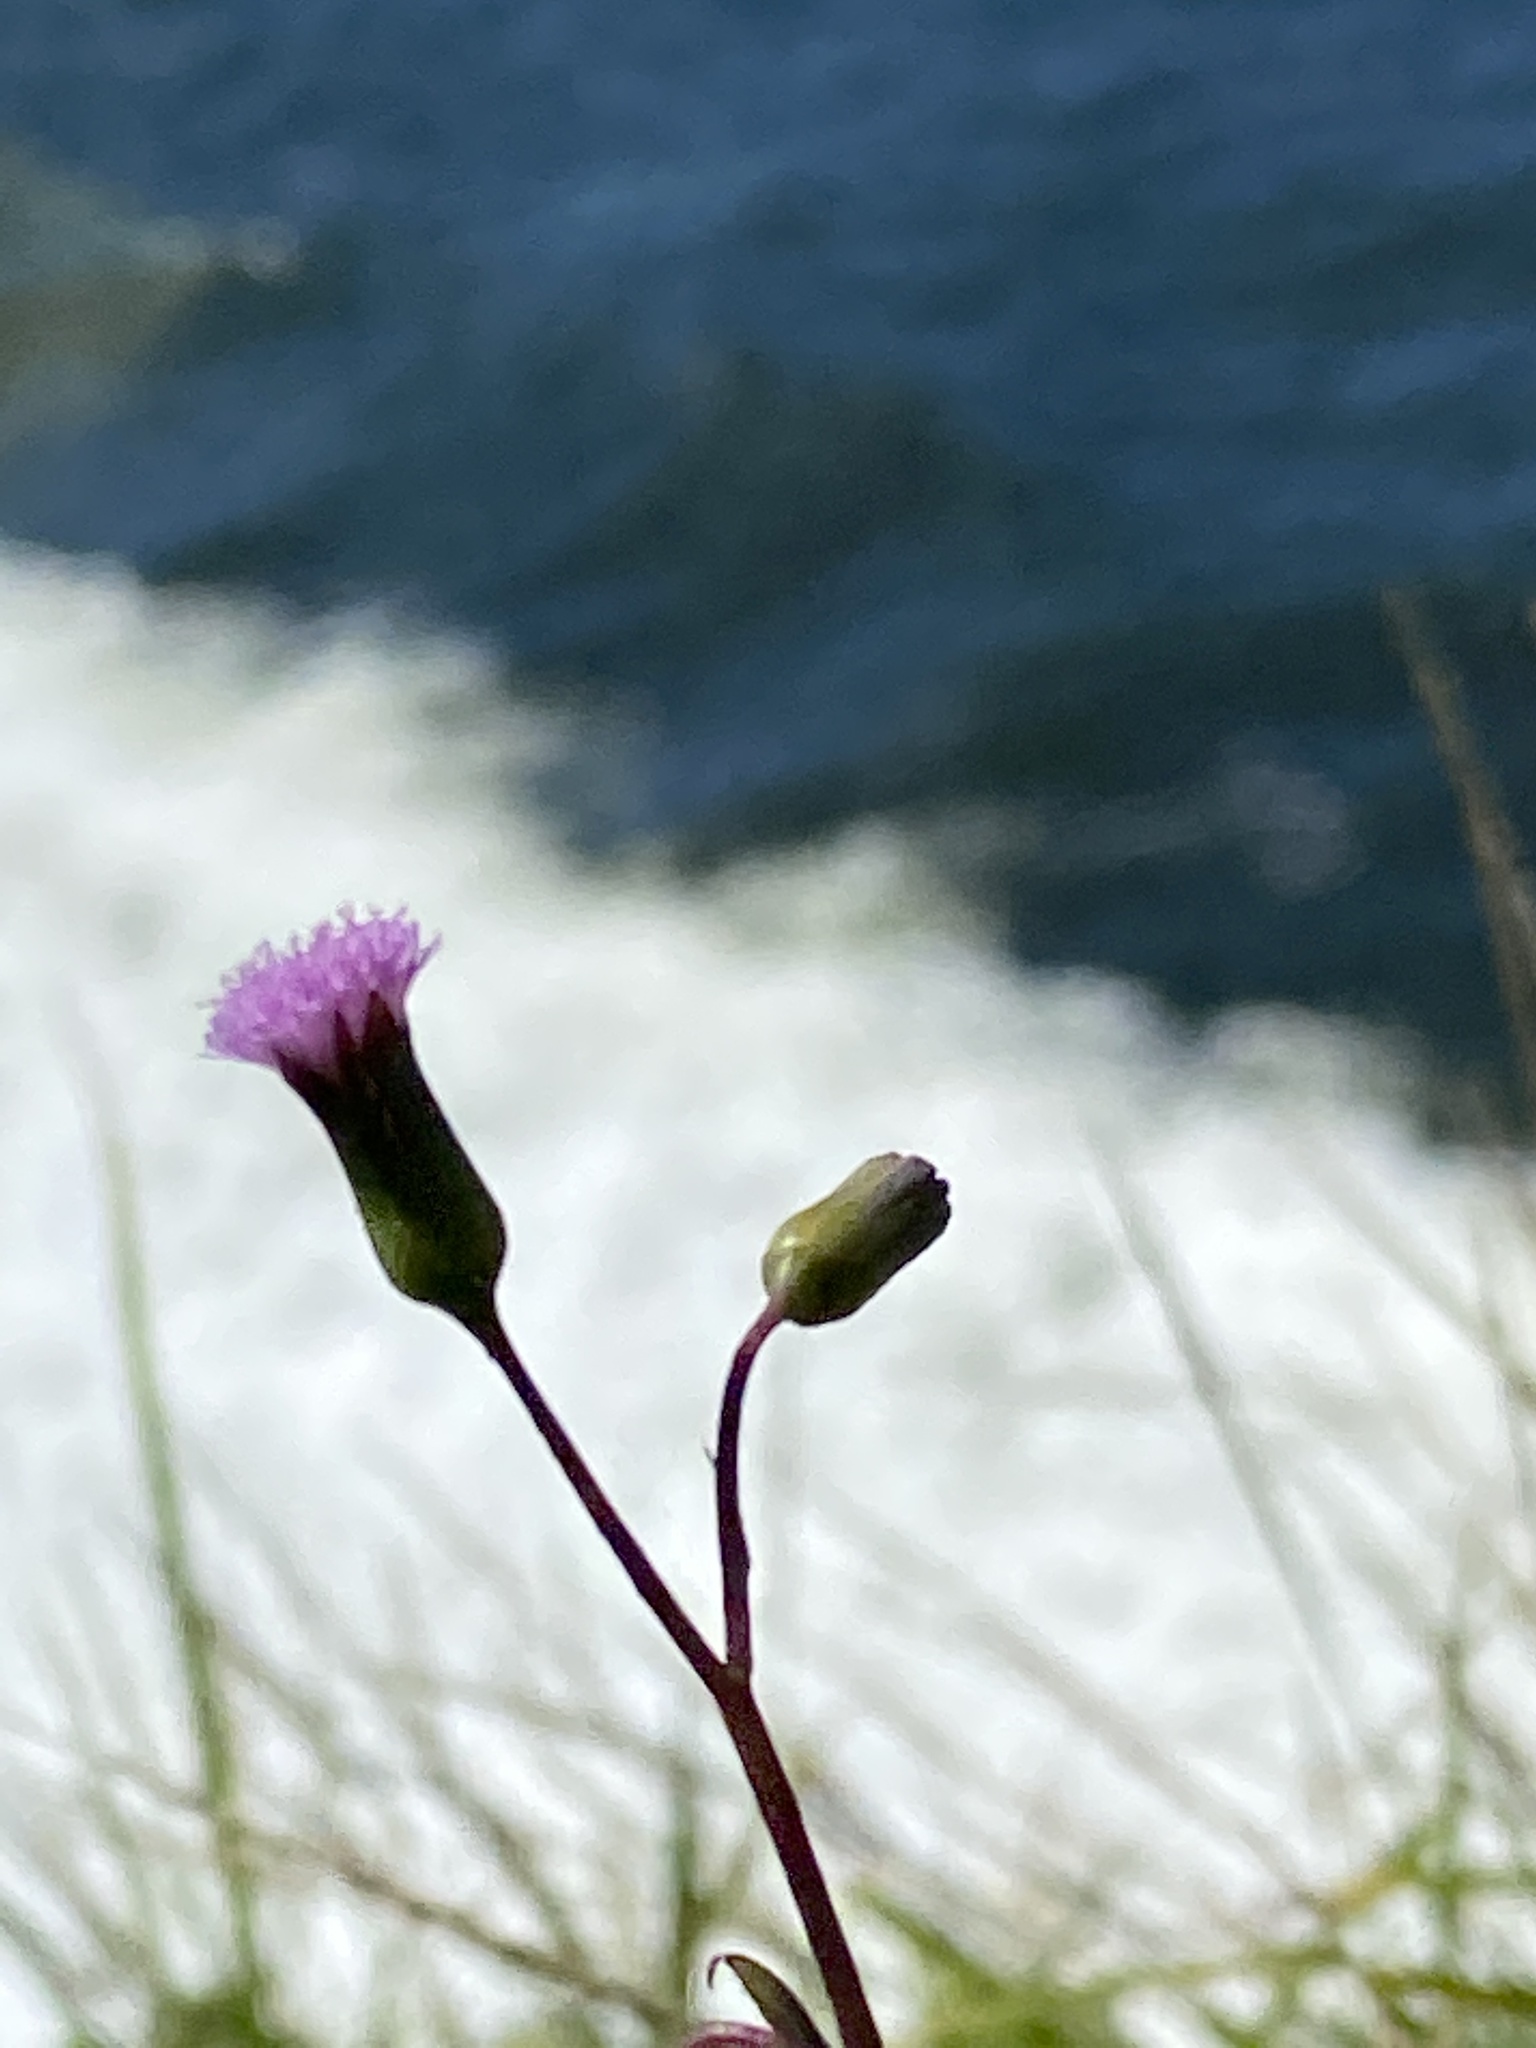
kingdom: Plantae
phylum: Tracheophyta
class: Magnoliopsida
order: Asterales
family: Asteraceae
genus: Emilia
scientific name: Emilia javanica
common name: Tassel-flower
